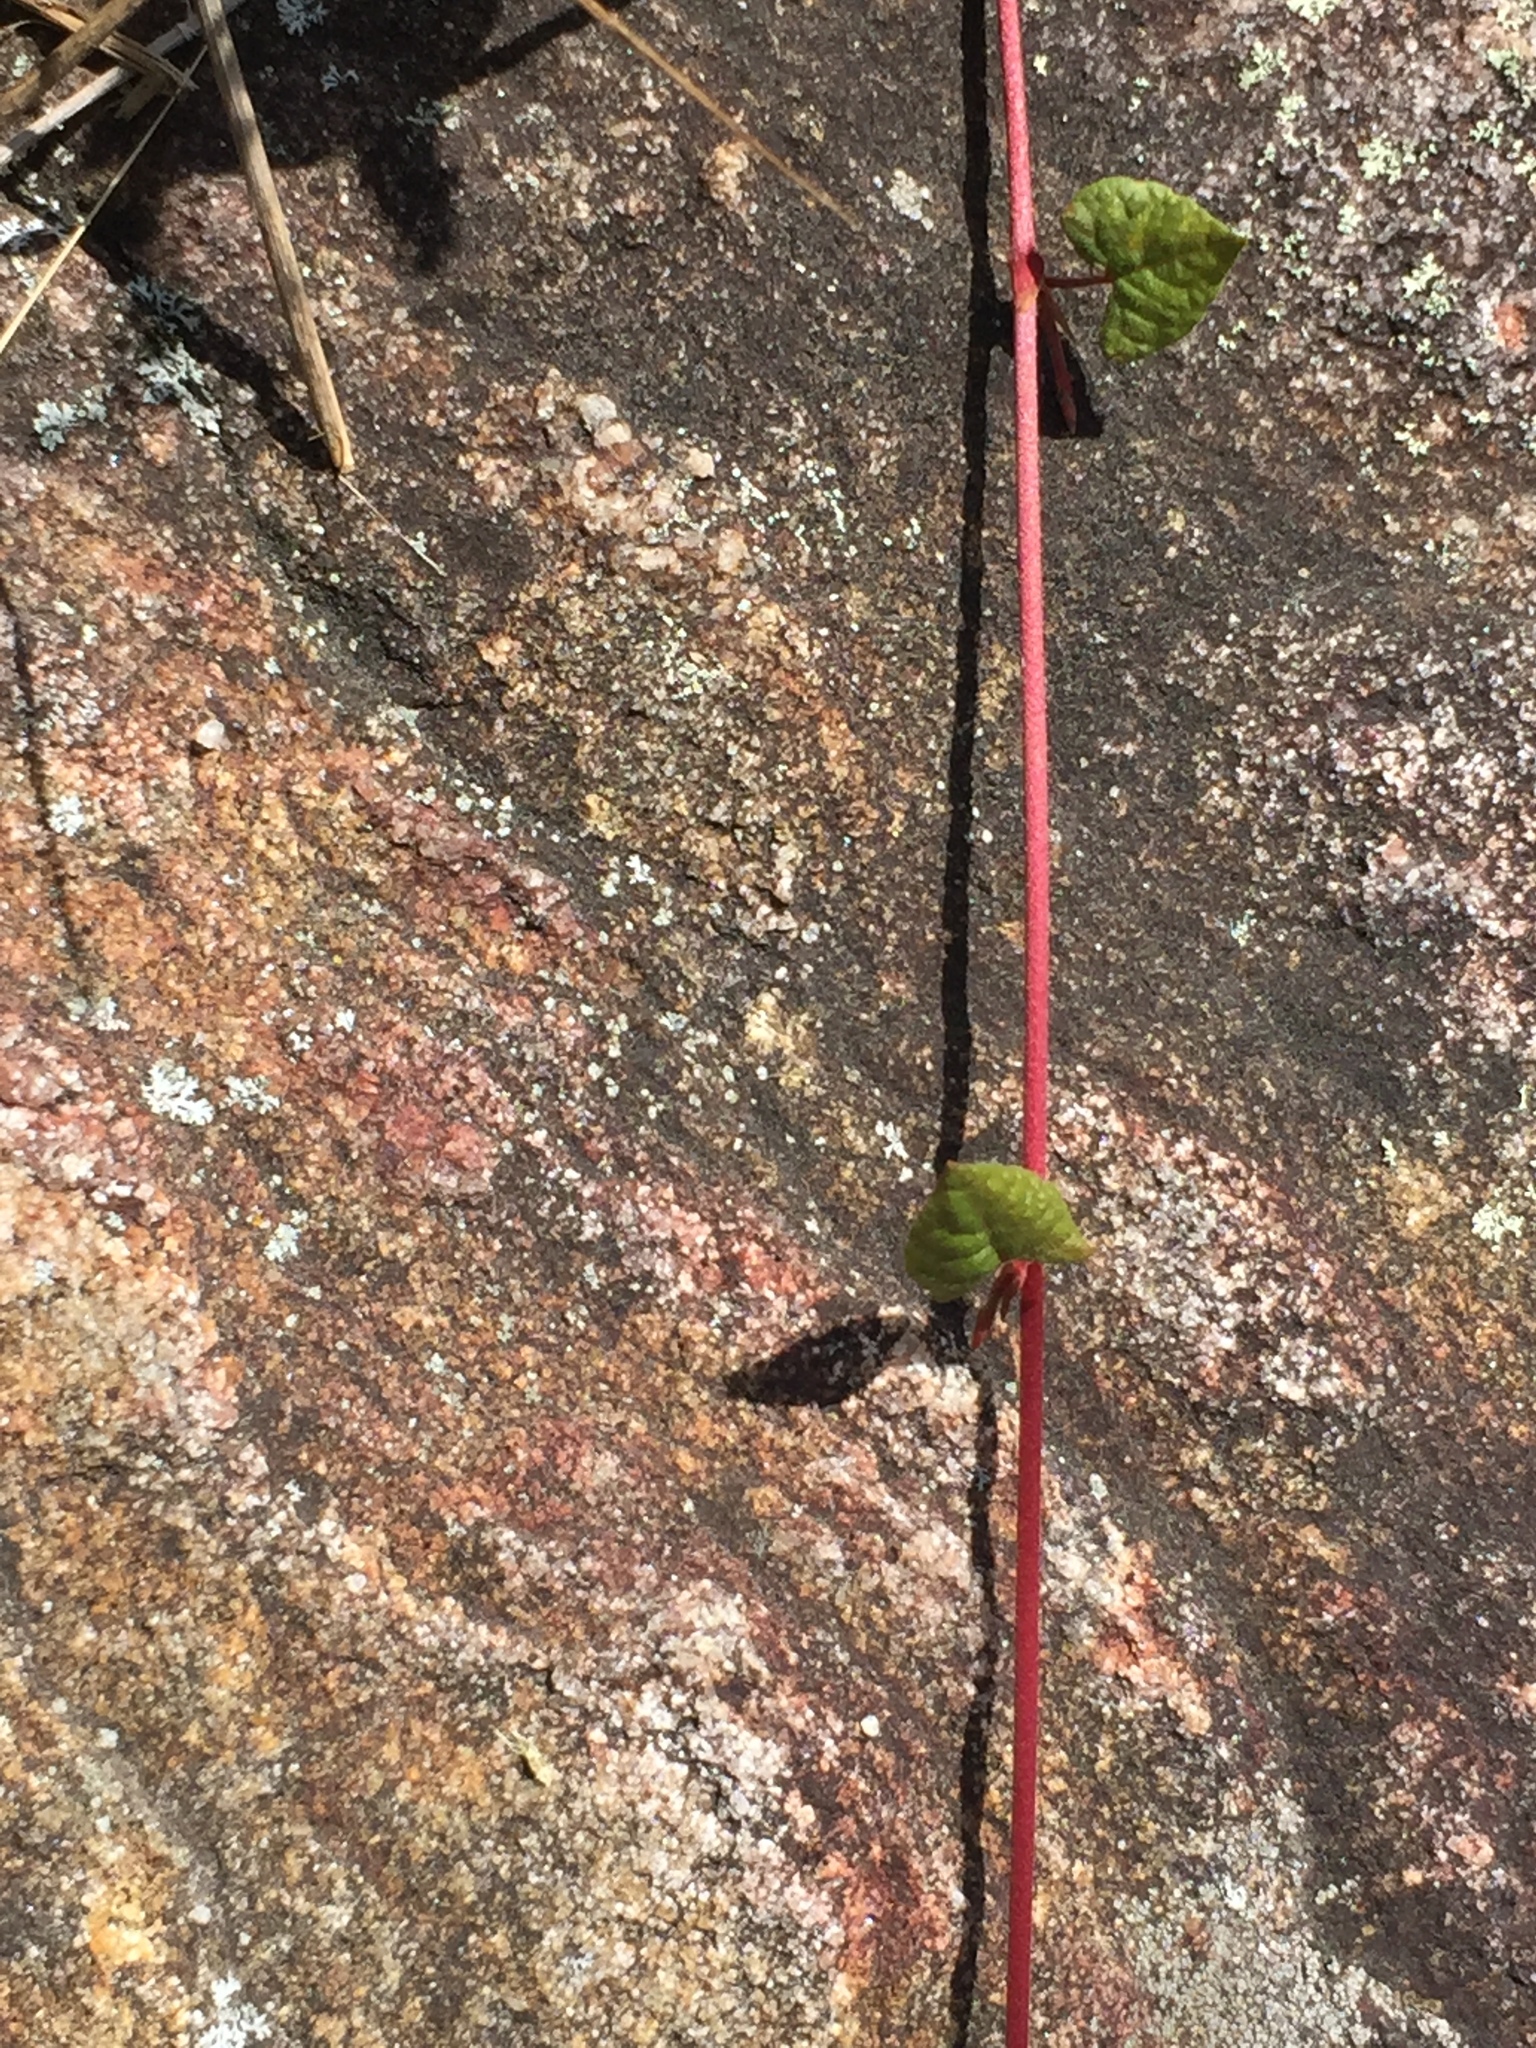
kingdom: Plantae
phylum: Tracheophyta
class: Magnoliopsida
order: Caryophyllales
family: Polygonaceae
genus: Parogonum
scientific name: Parogonum ciliinode
